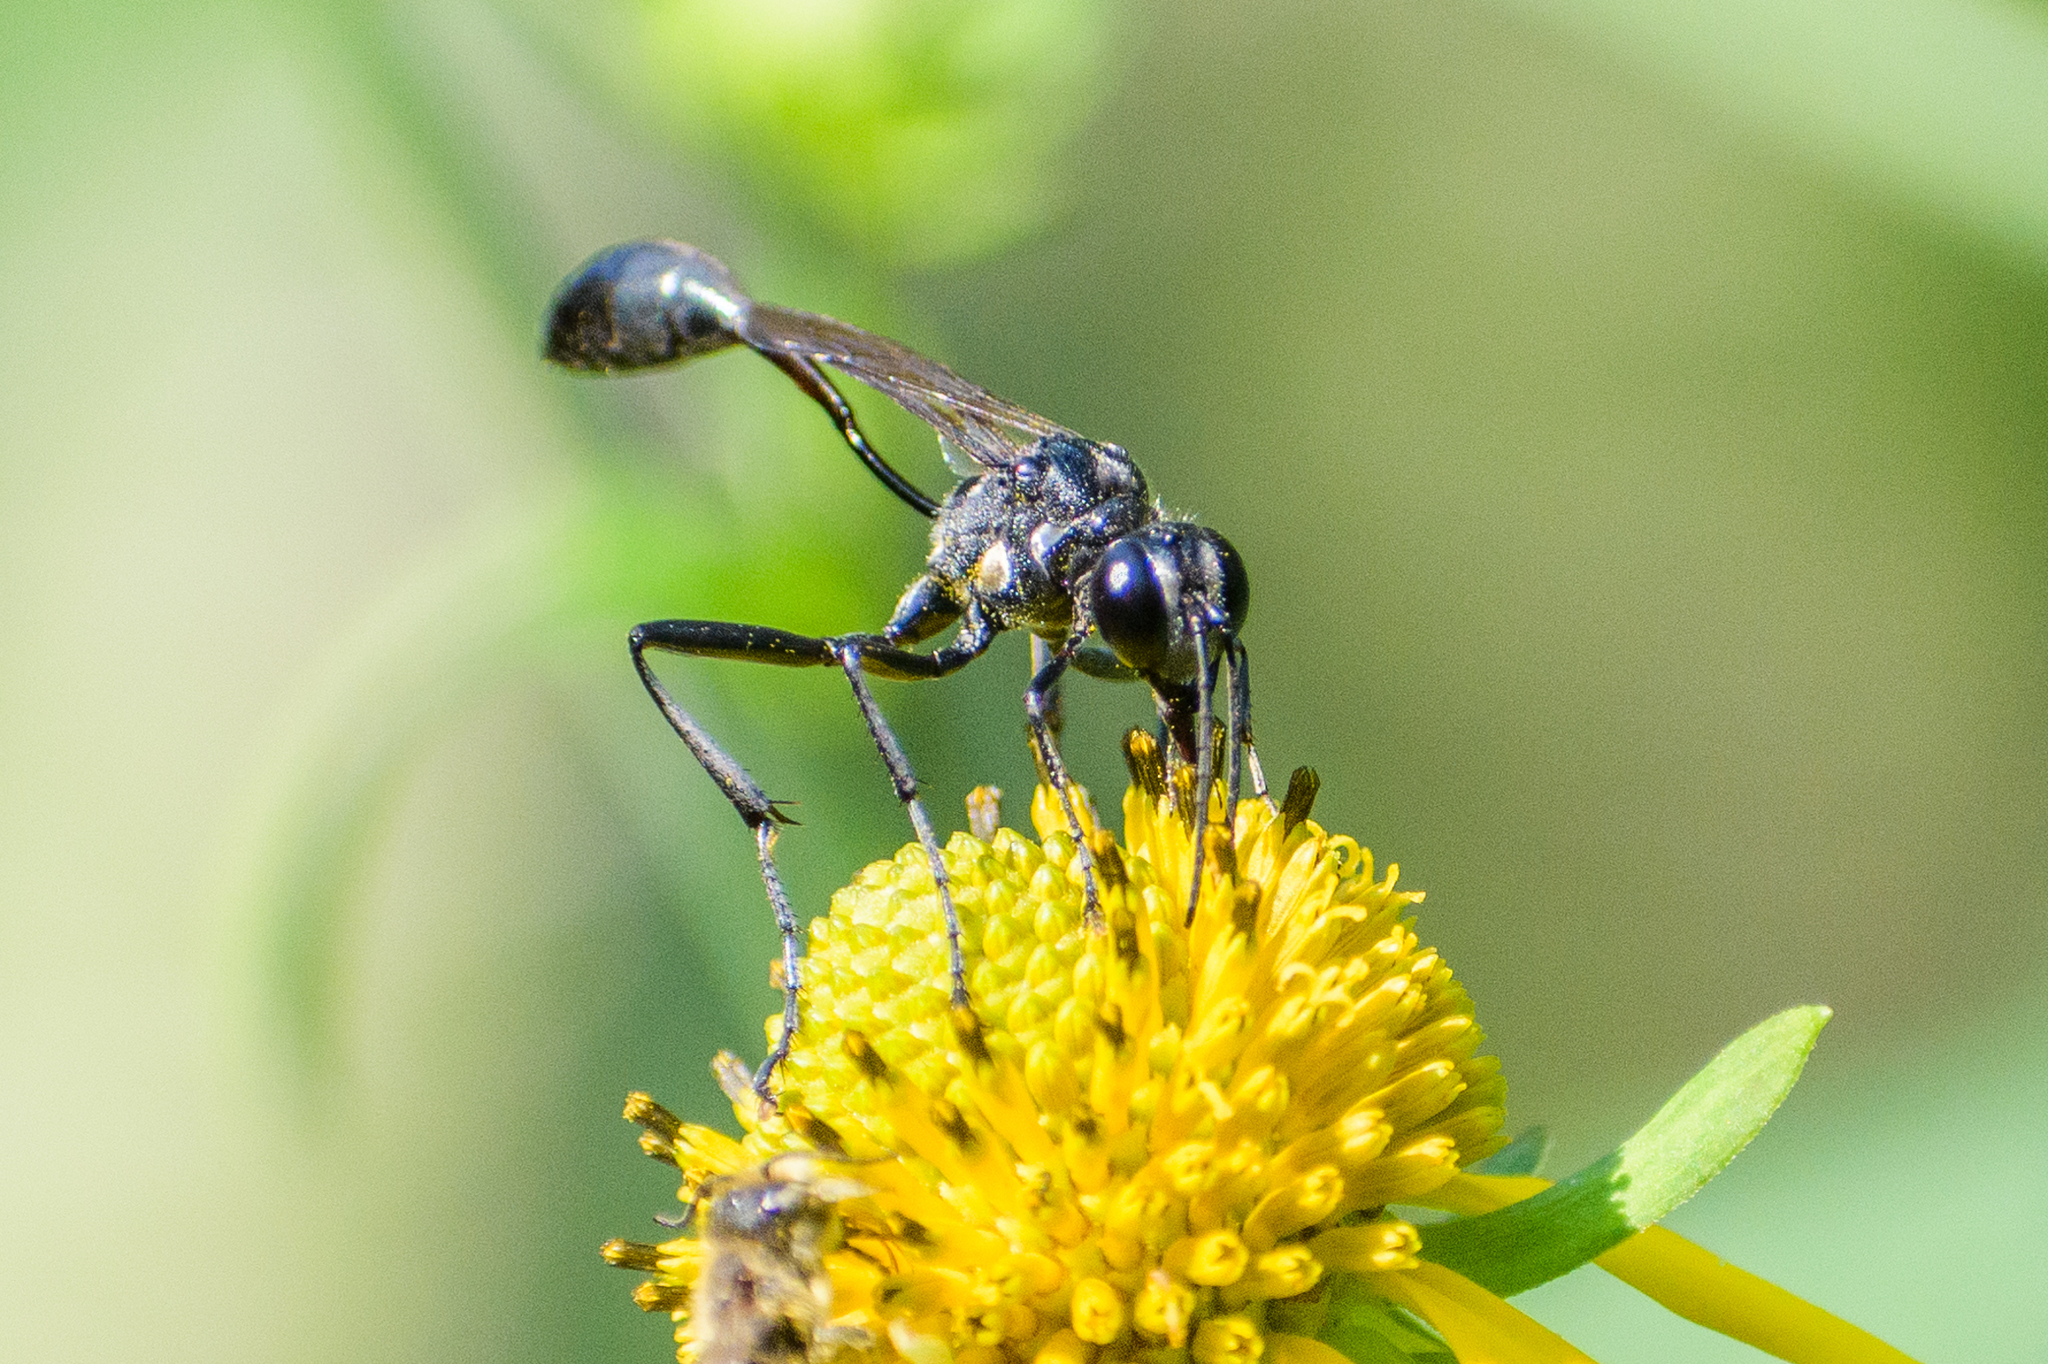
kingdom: Animalia
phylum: Arthropoda
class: Insecta
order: Hymenoptera
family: Sphecidae
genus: Eremnophila
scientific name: Eremnophila aureonotata
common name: Gold-marked thread-waisted wasp
